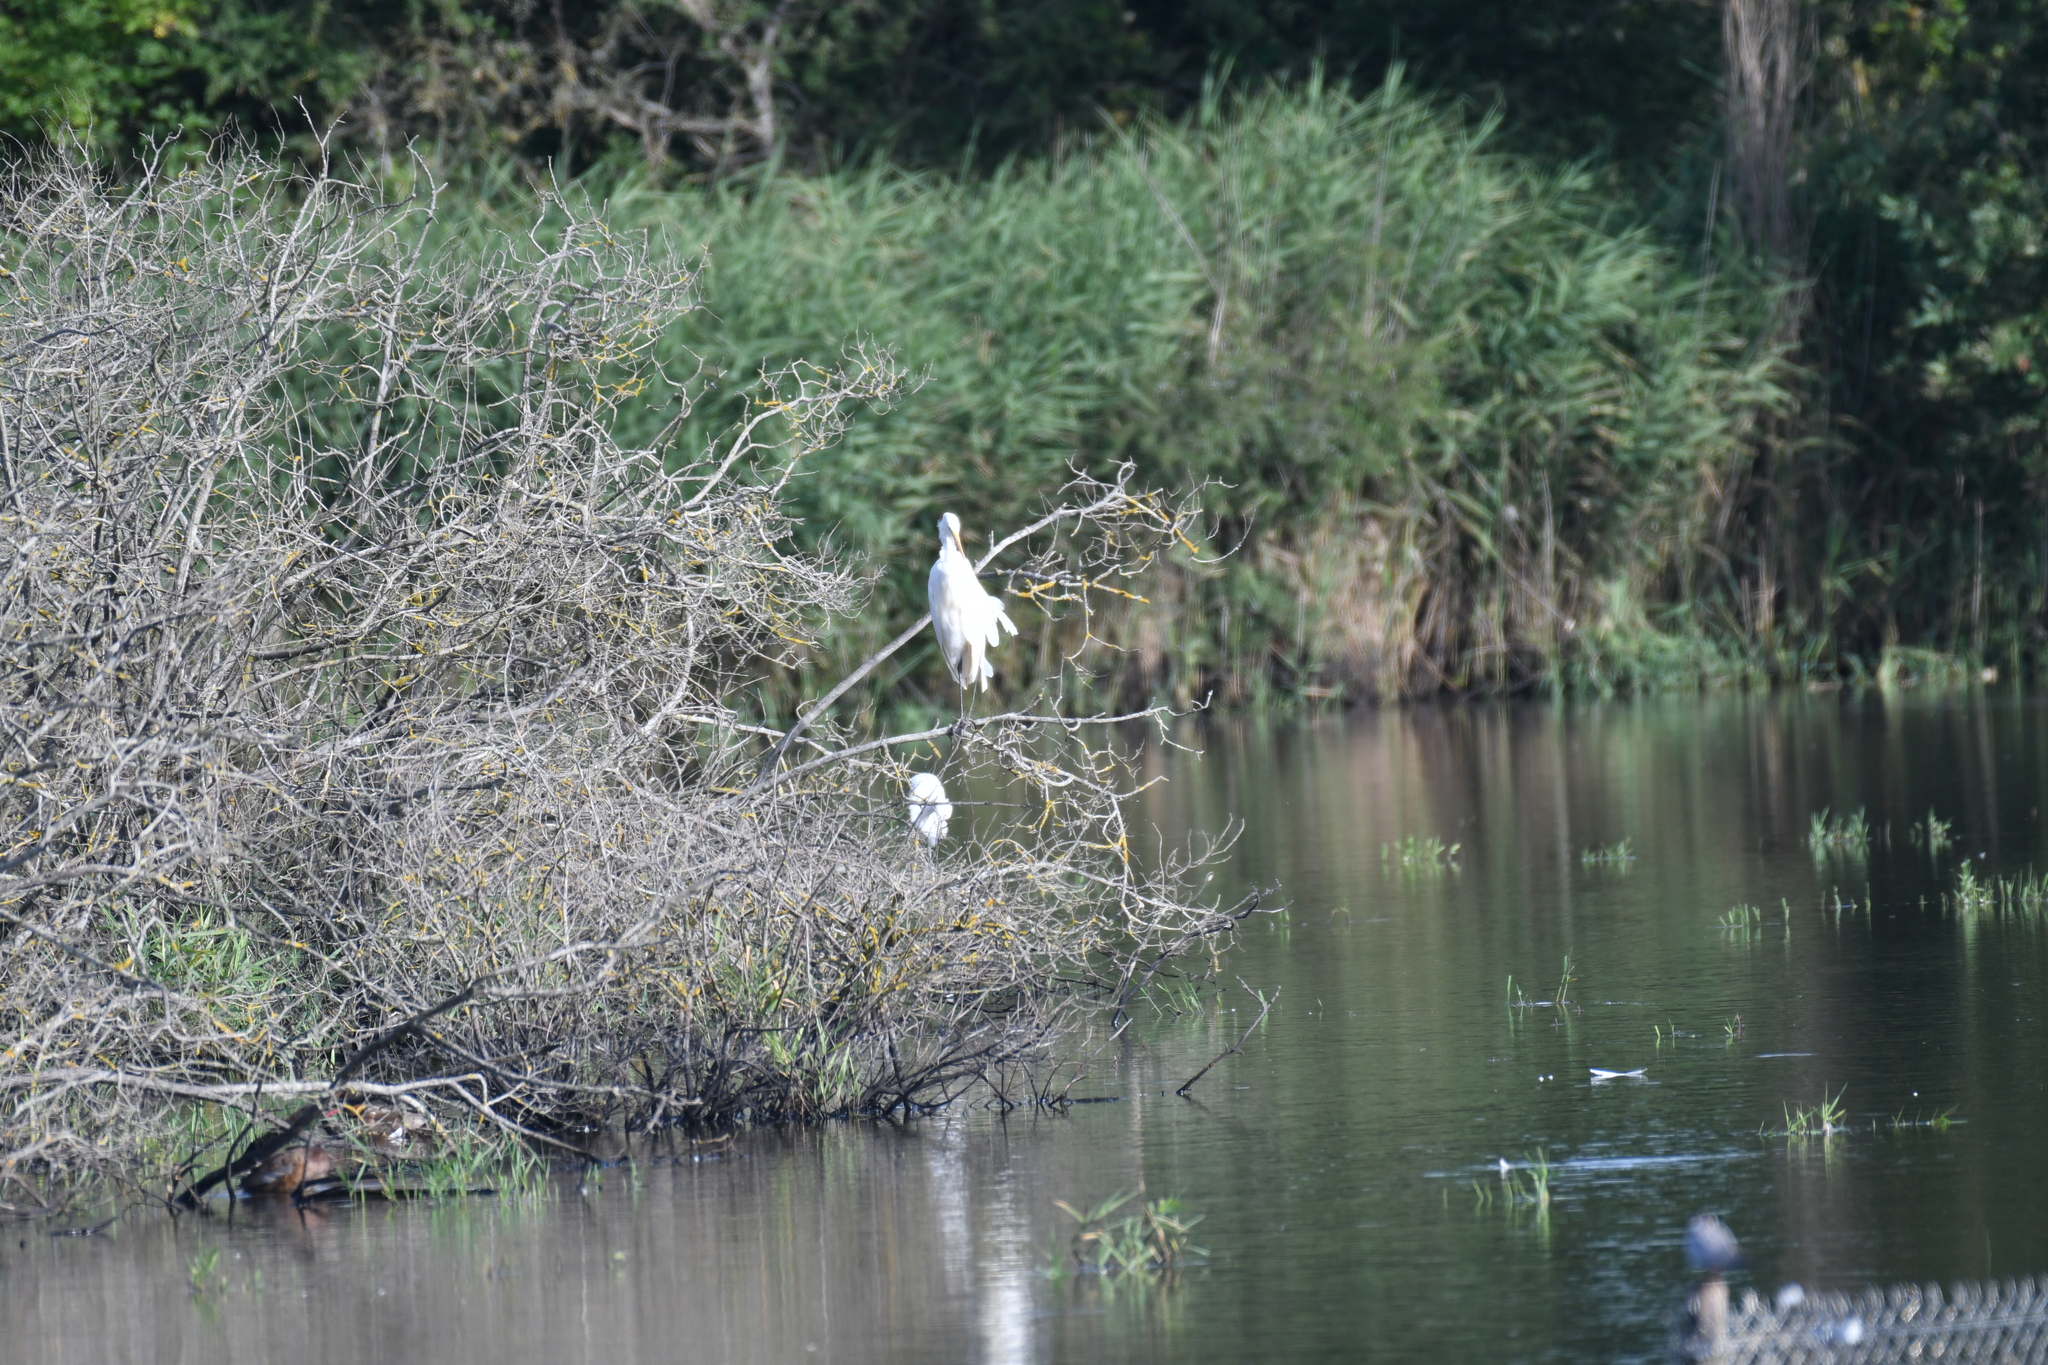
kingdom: Animalia
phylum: Chordata
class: Aves
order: Pelecaniformes
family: Ardeidae
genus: Ardea
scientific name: Ardea alba
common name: Great egret
